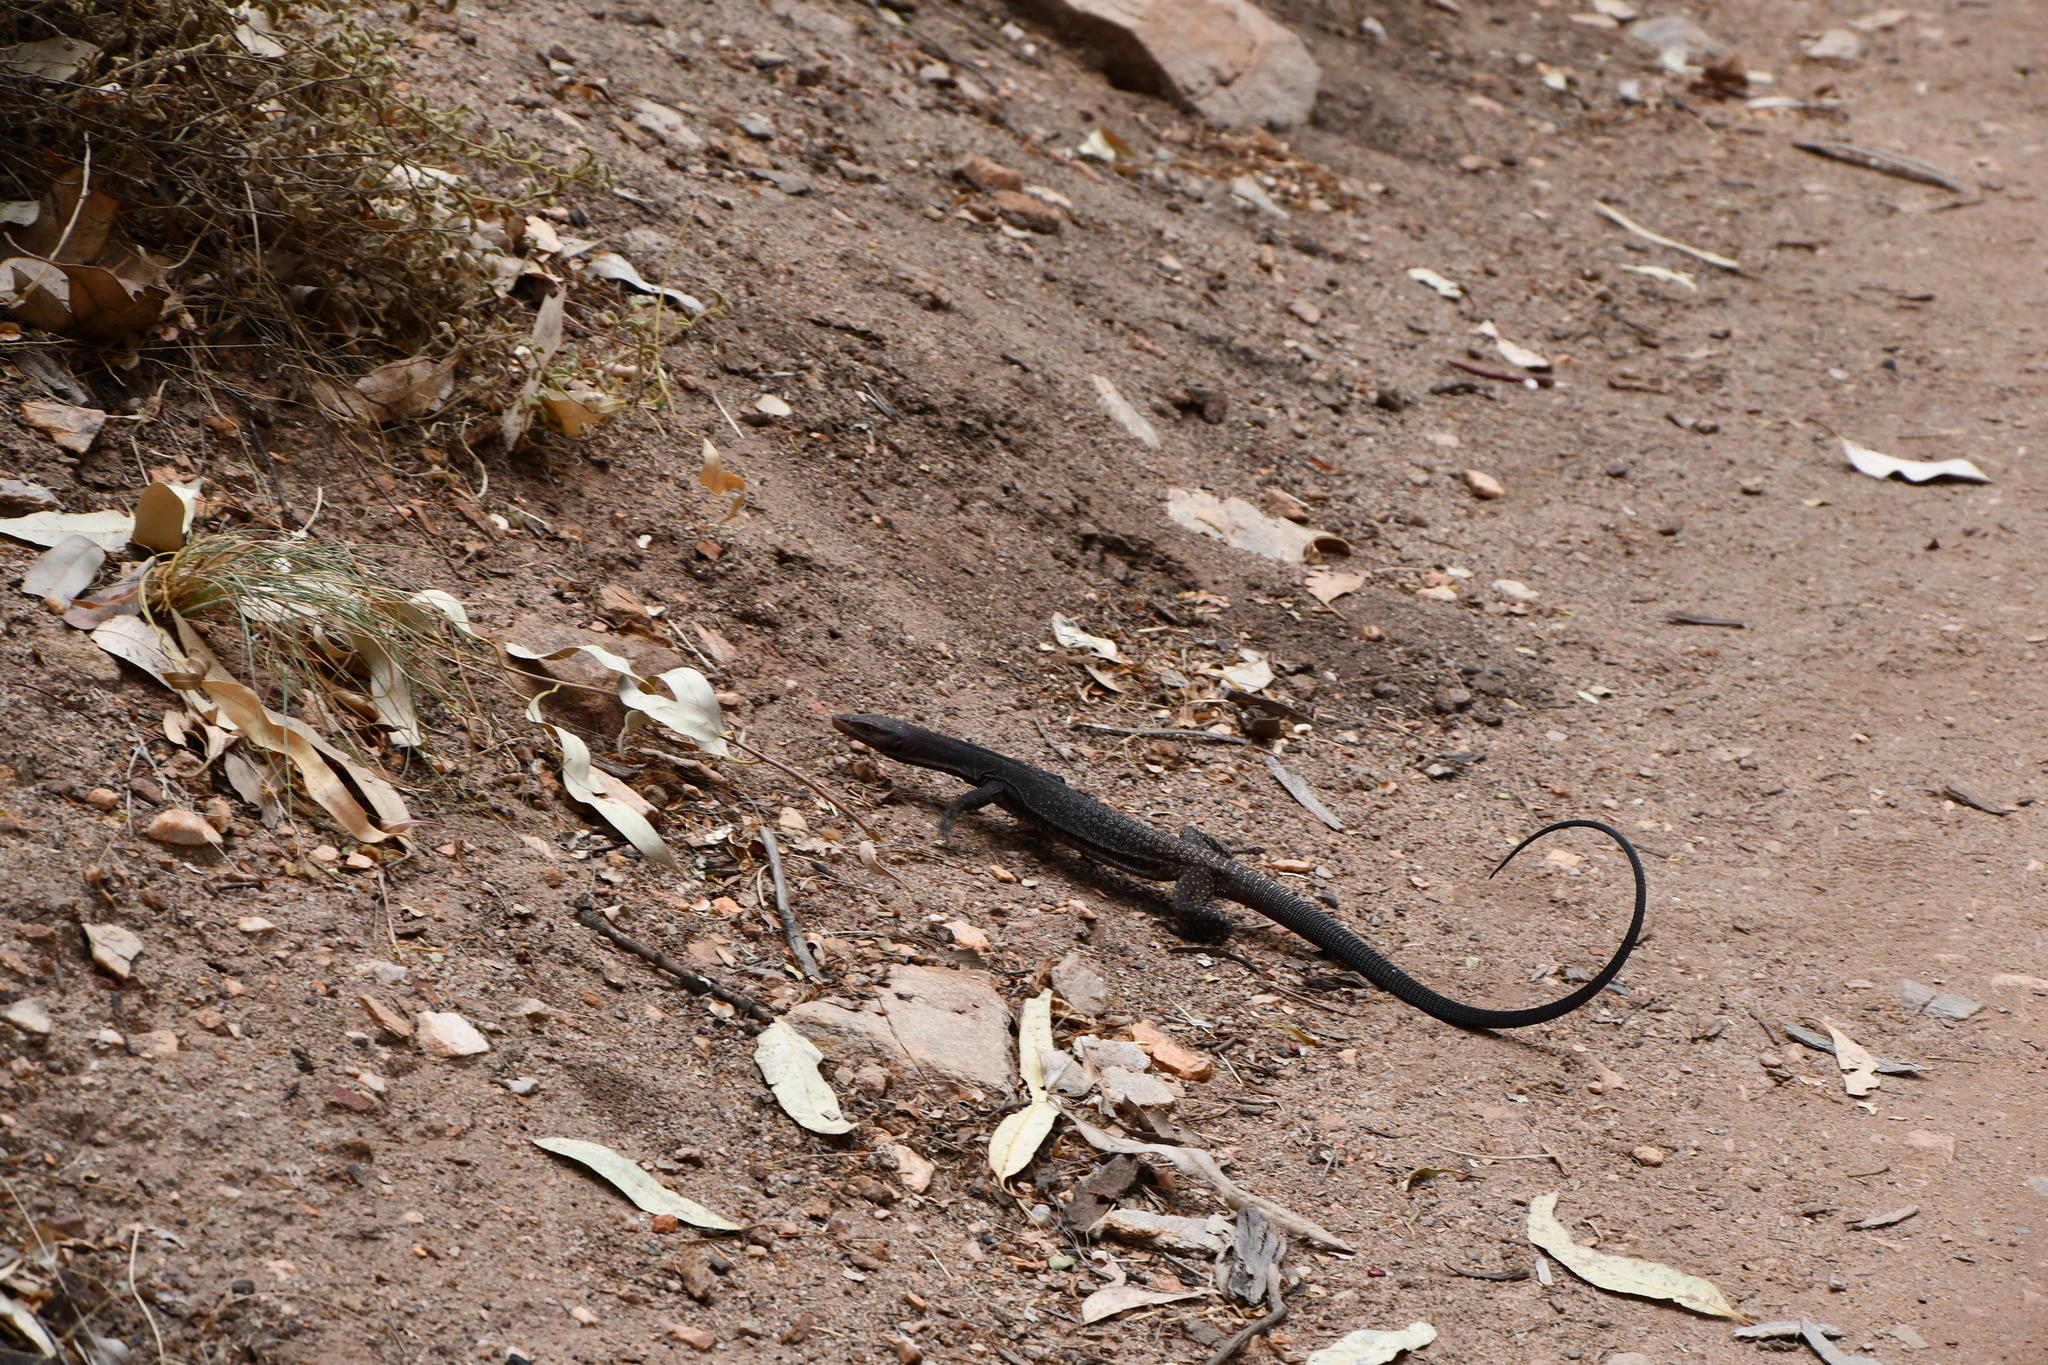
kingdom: Animalia
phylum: Chordata
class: Squamata
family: Varanidae
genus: Varanus
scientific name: Varanus tristis
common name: Arid monitor
